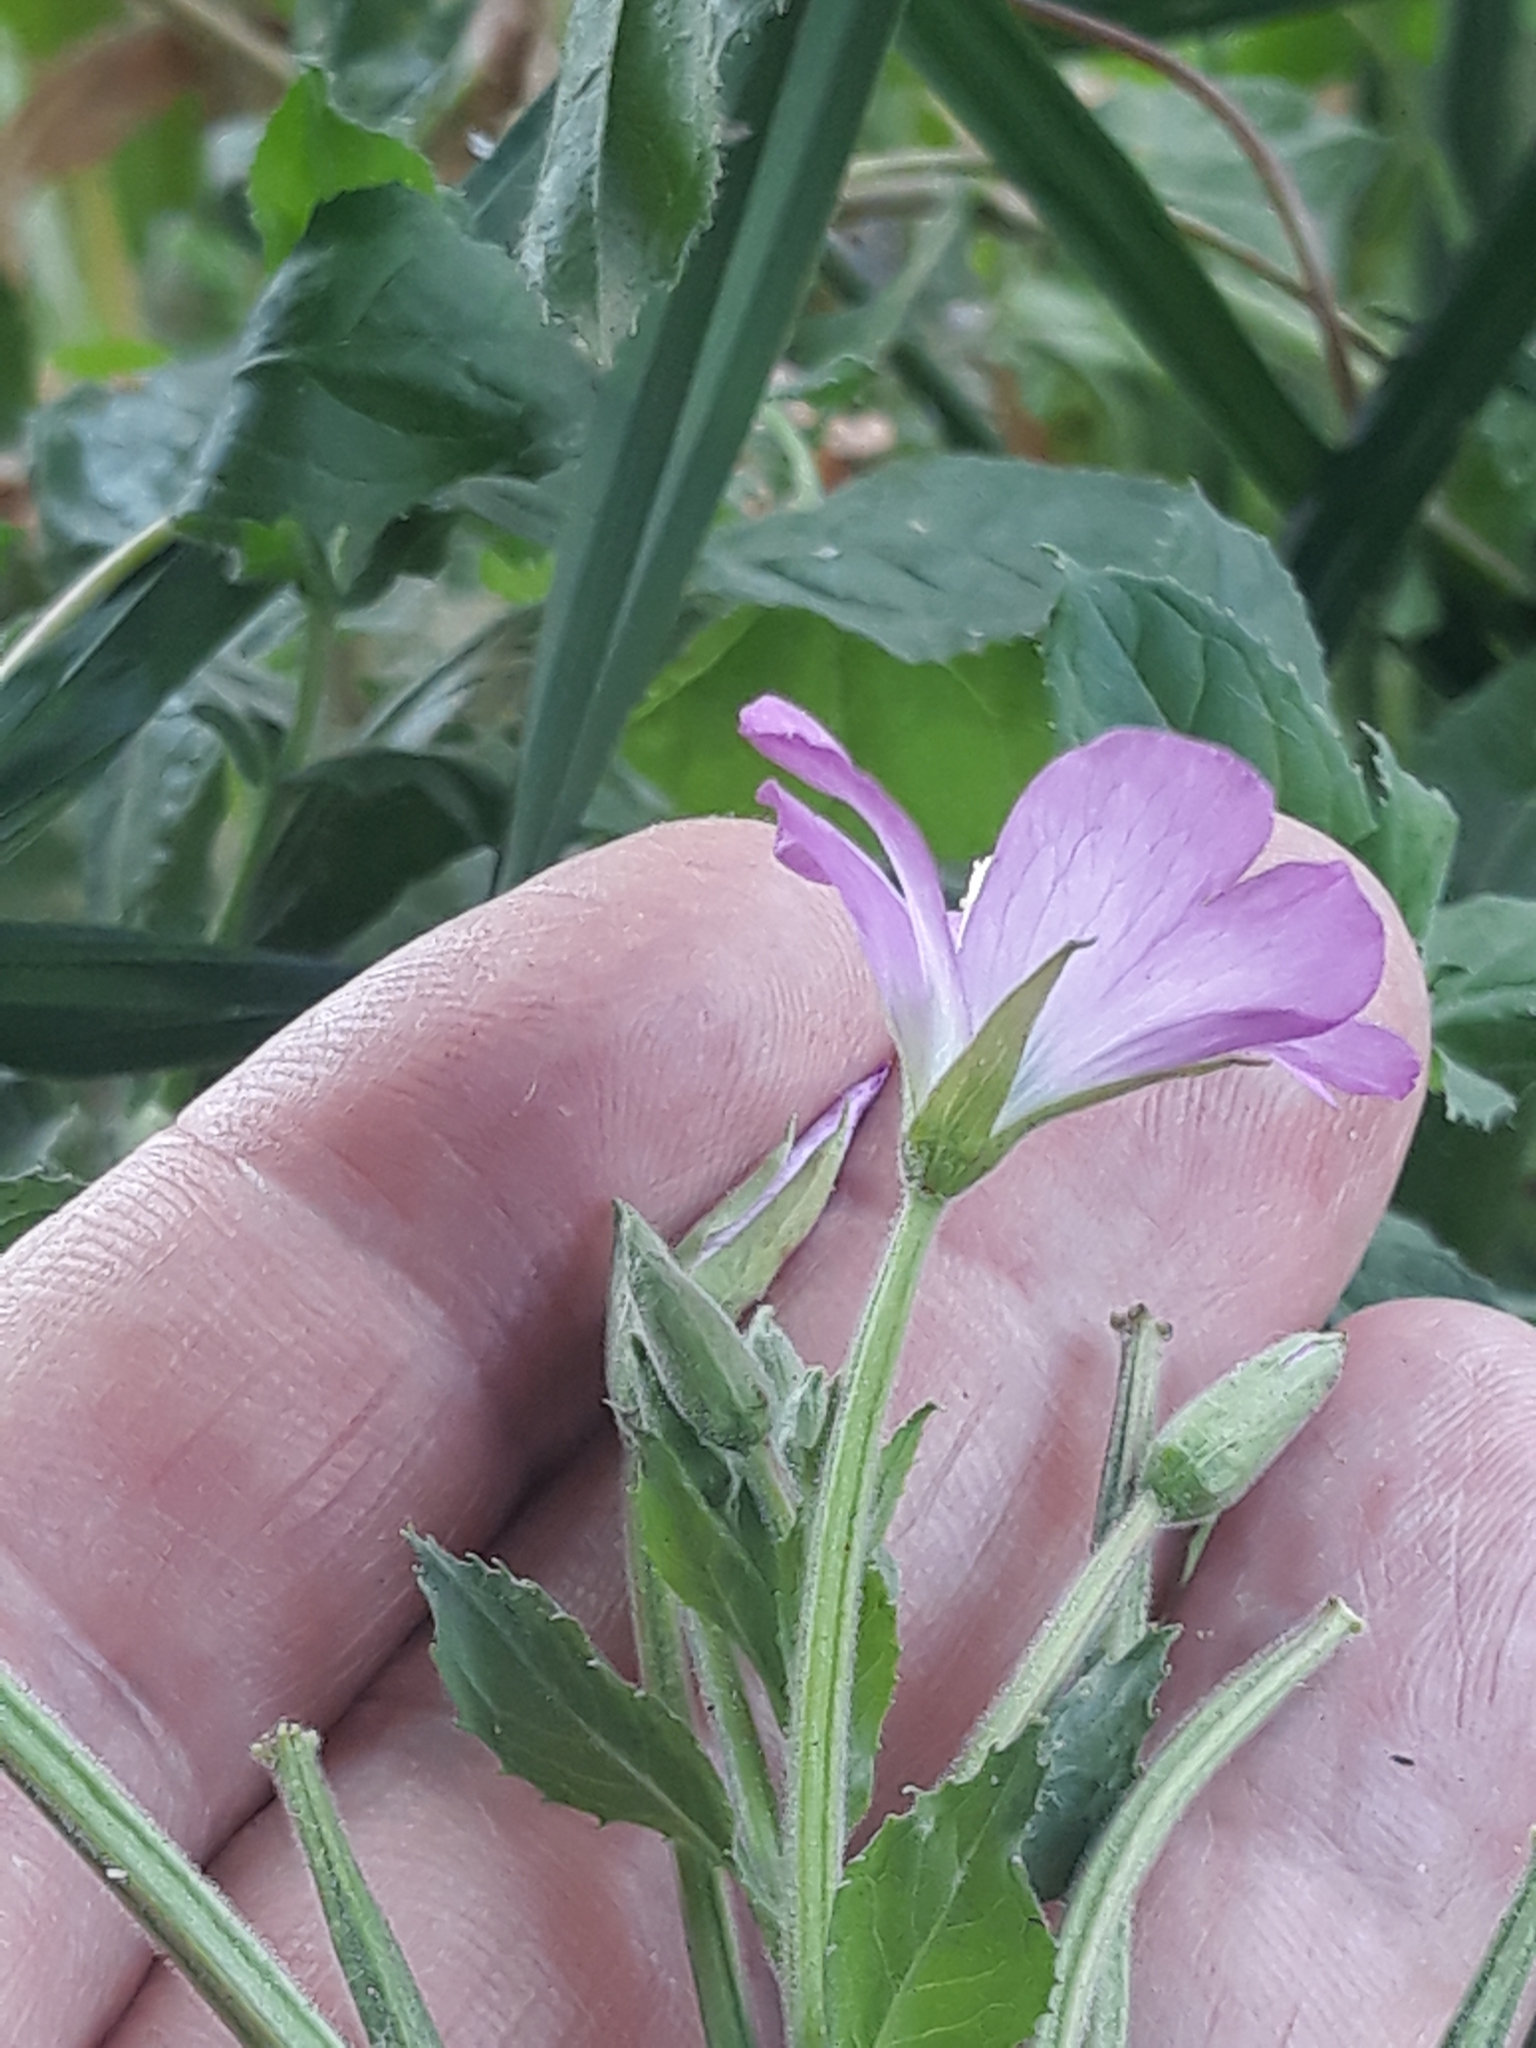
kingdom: Plantae
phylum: Tracheophyta
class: Magnoliopsida
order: Myrtales
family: Onagraceae
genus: Epilobium
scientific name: Epilobium hirsutum
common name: Great willowherb
